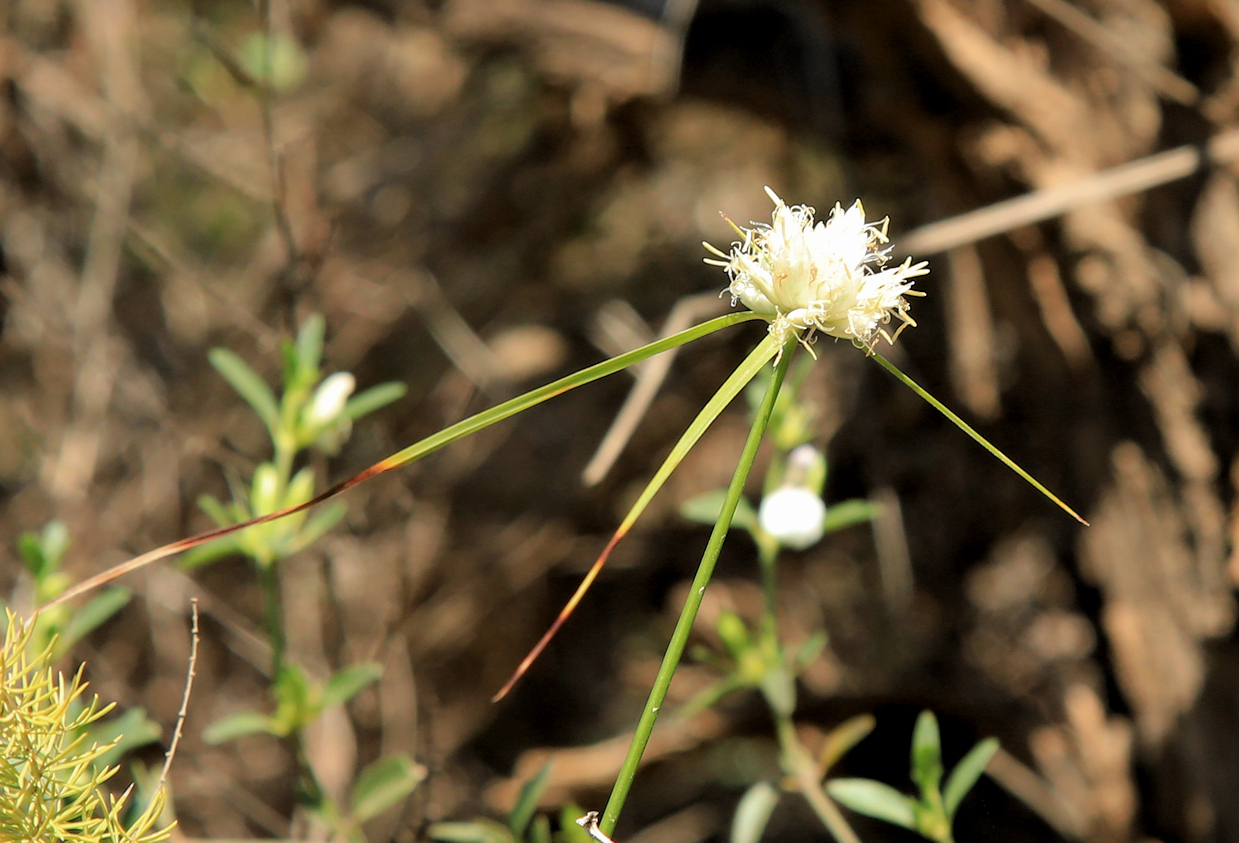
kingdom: Plantae
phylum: Tracheophyta
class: Liliopsida
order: Poales
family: Cyperaceae
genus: Cyperus
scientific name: Cyperus niveus
